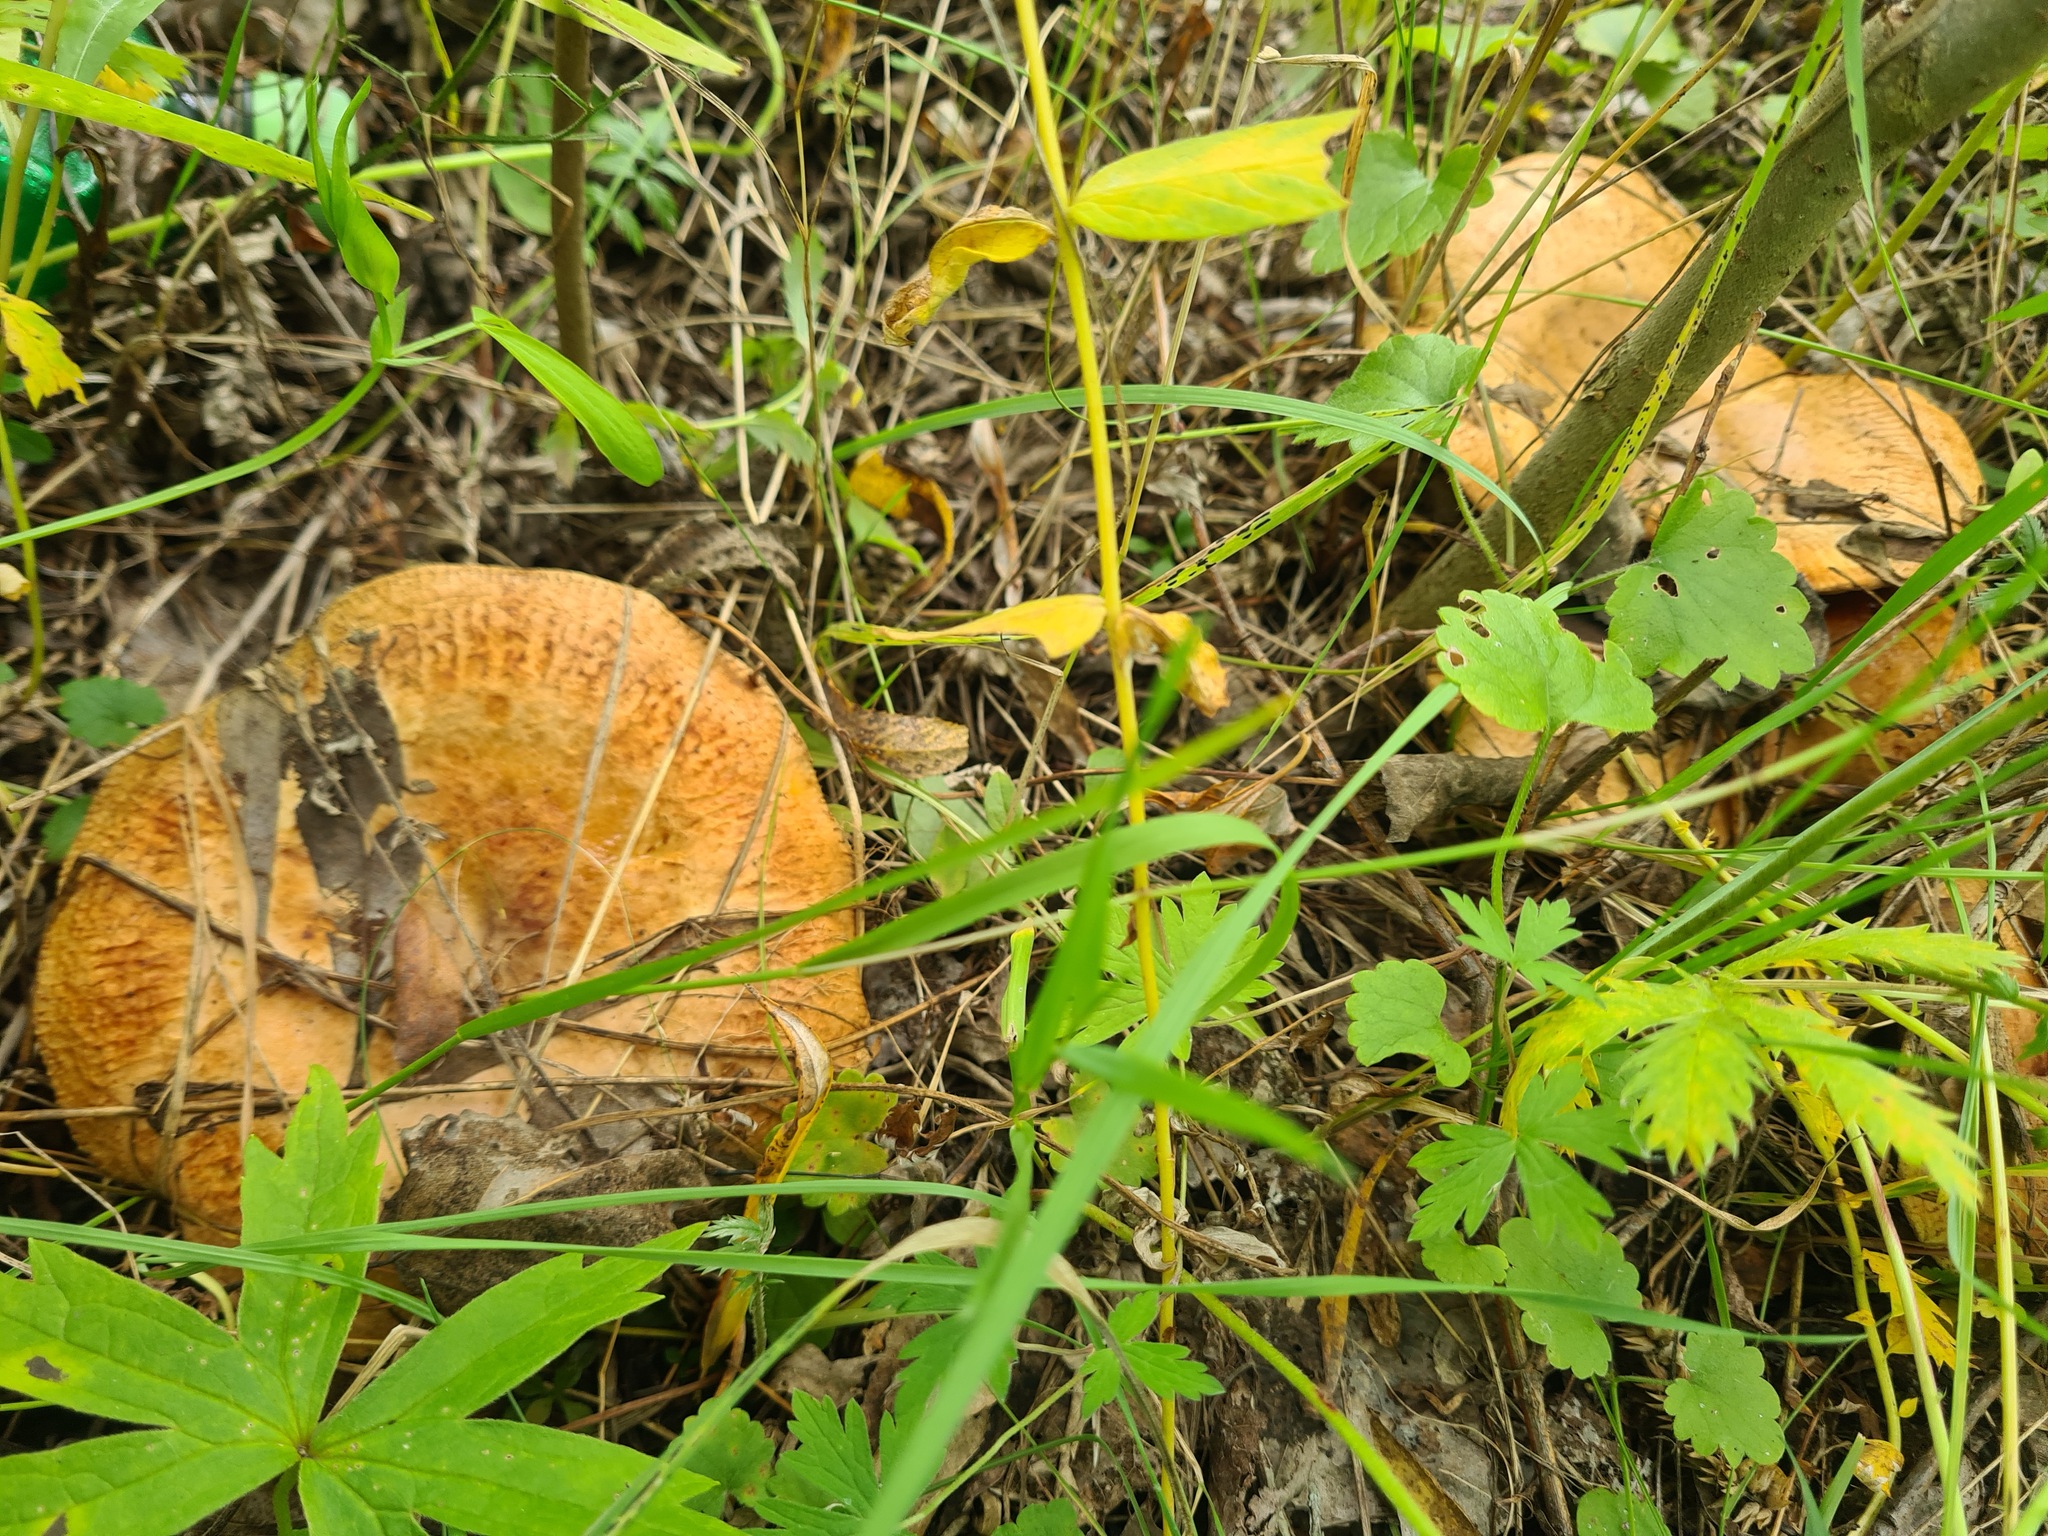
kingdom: Fungi
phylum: Basidiomycota
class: Agaricomycetes
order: Boletales
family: Paxillaceae
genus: Paxillus
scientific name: Paxillus involutus
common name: Brown roll rim
